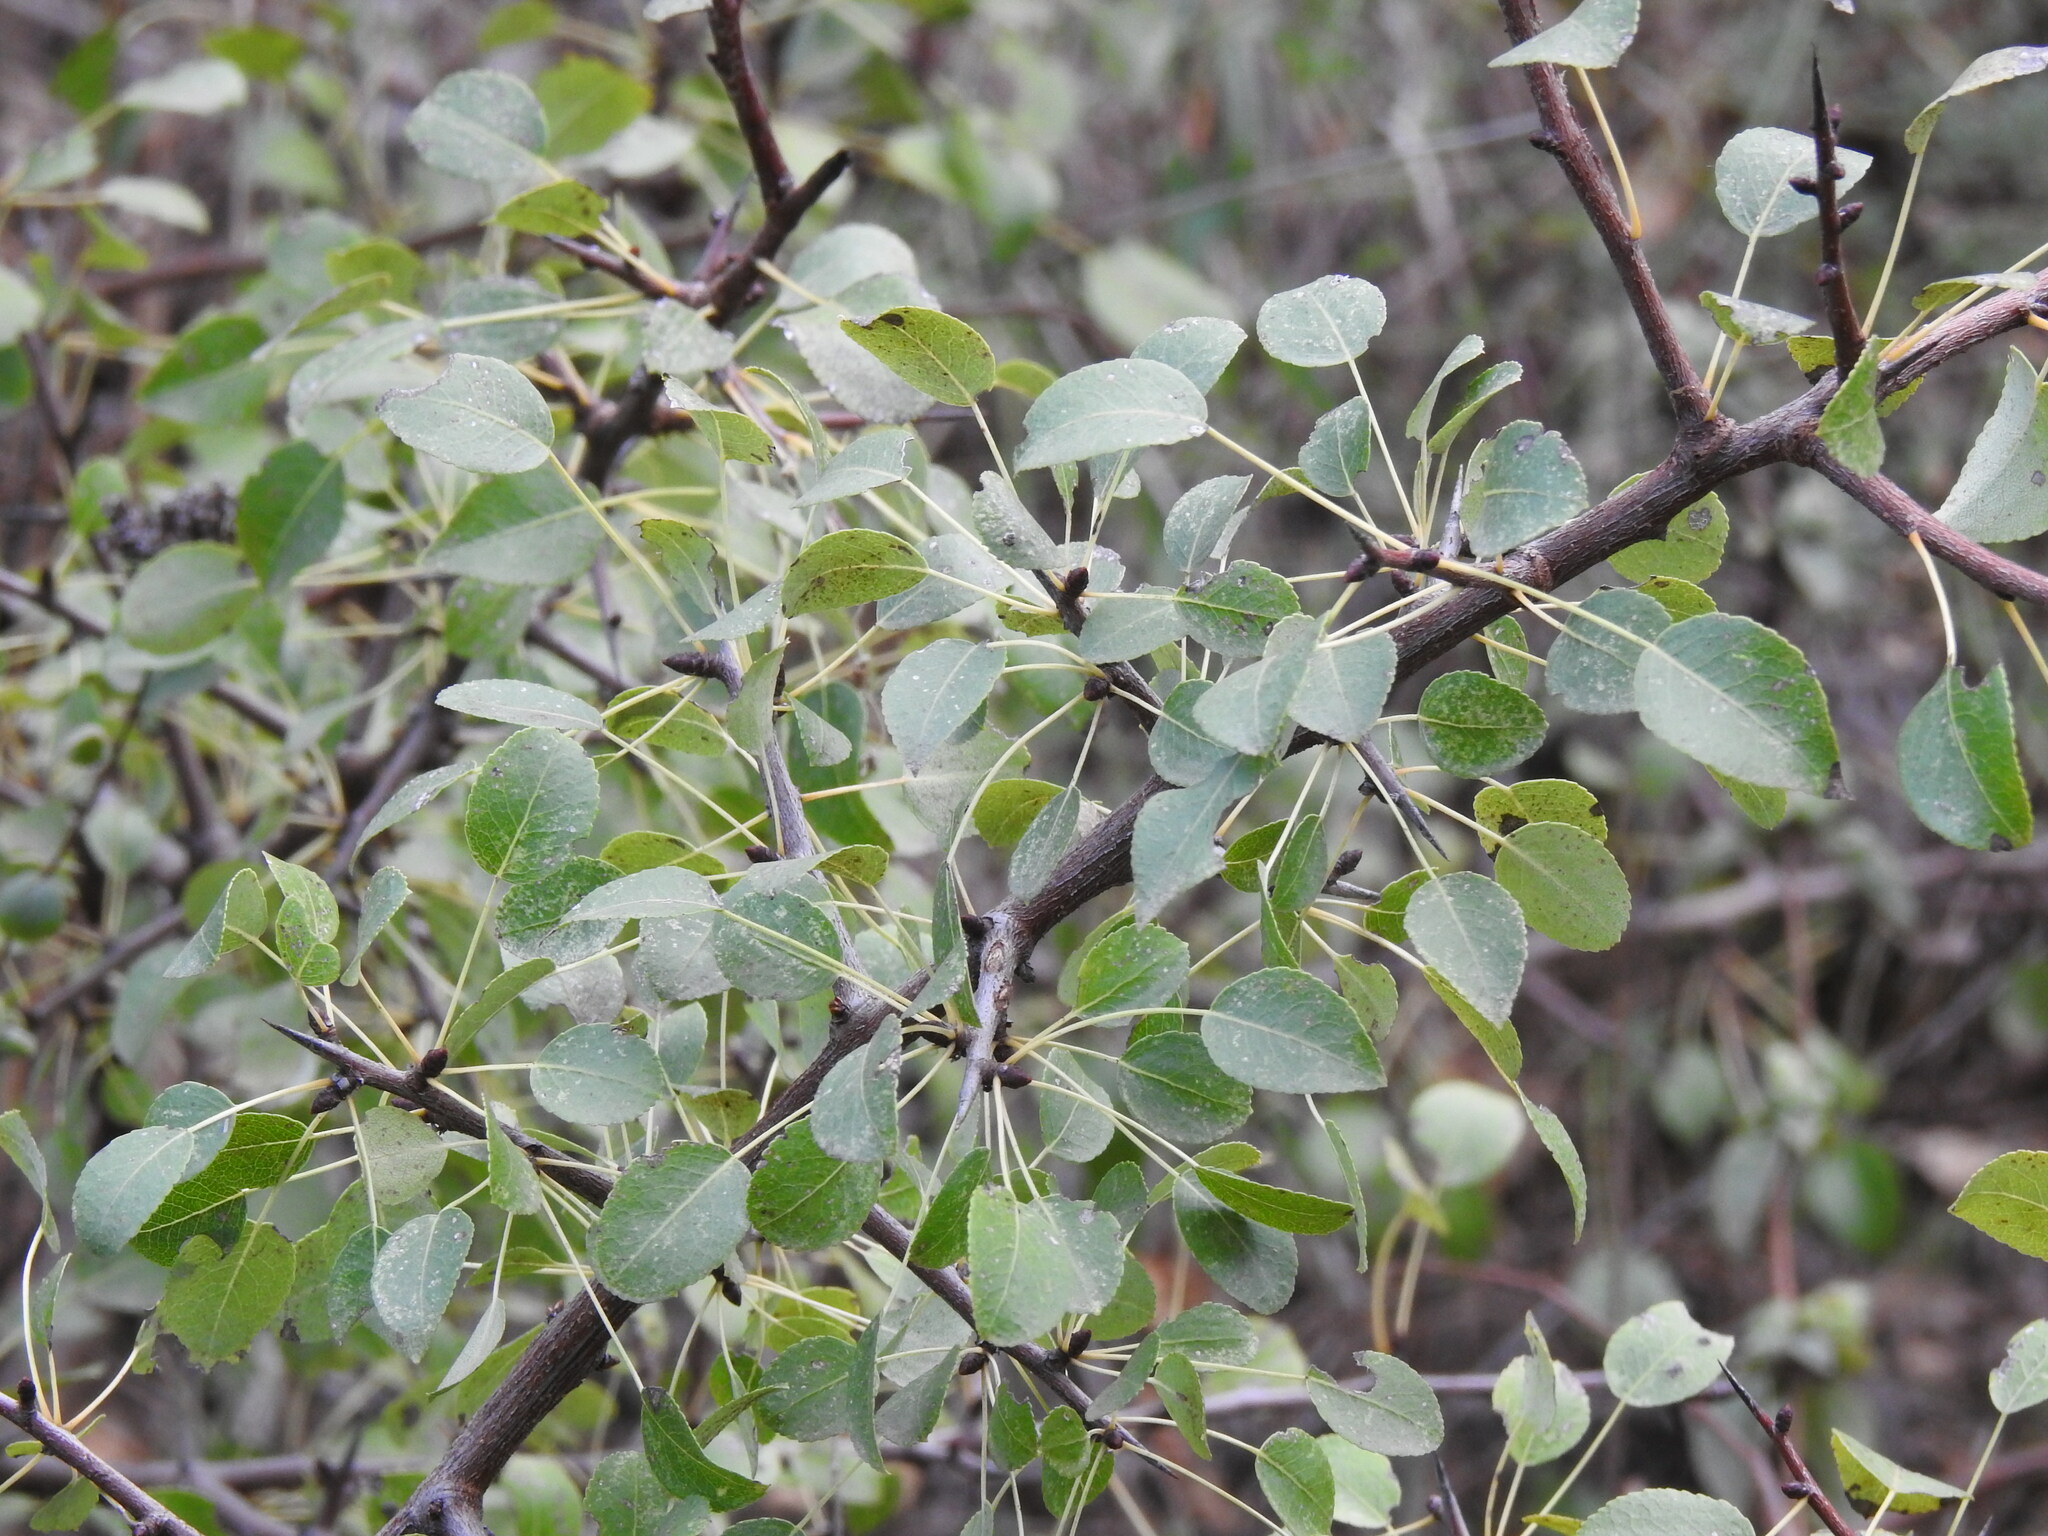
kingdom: Plantae
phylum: Tracheophyta
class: Magnoliopsida
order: Rosales
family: Rosaceae
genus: Pyrus
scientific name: Pyrus bourgaeana
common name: Iberian pear
